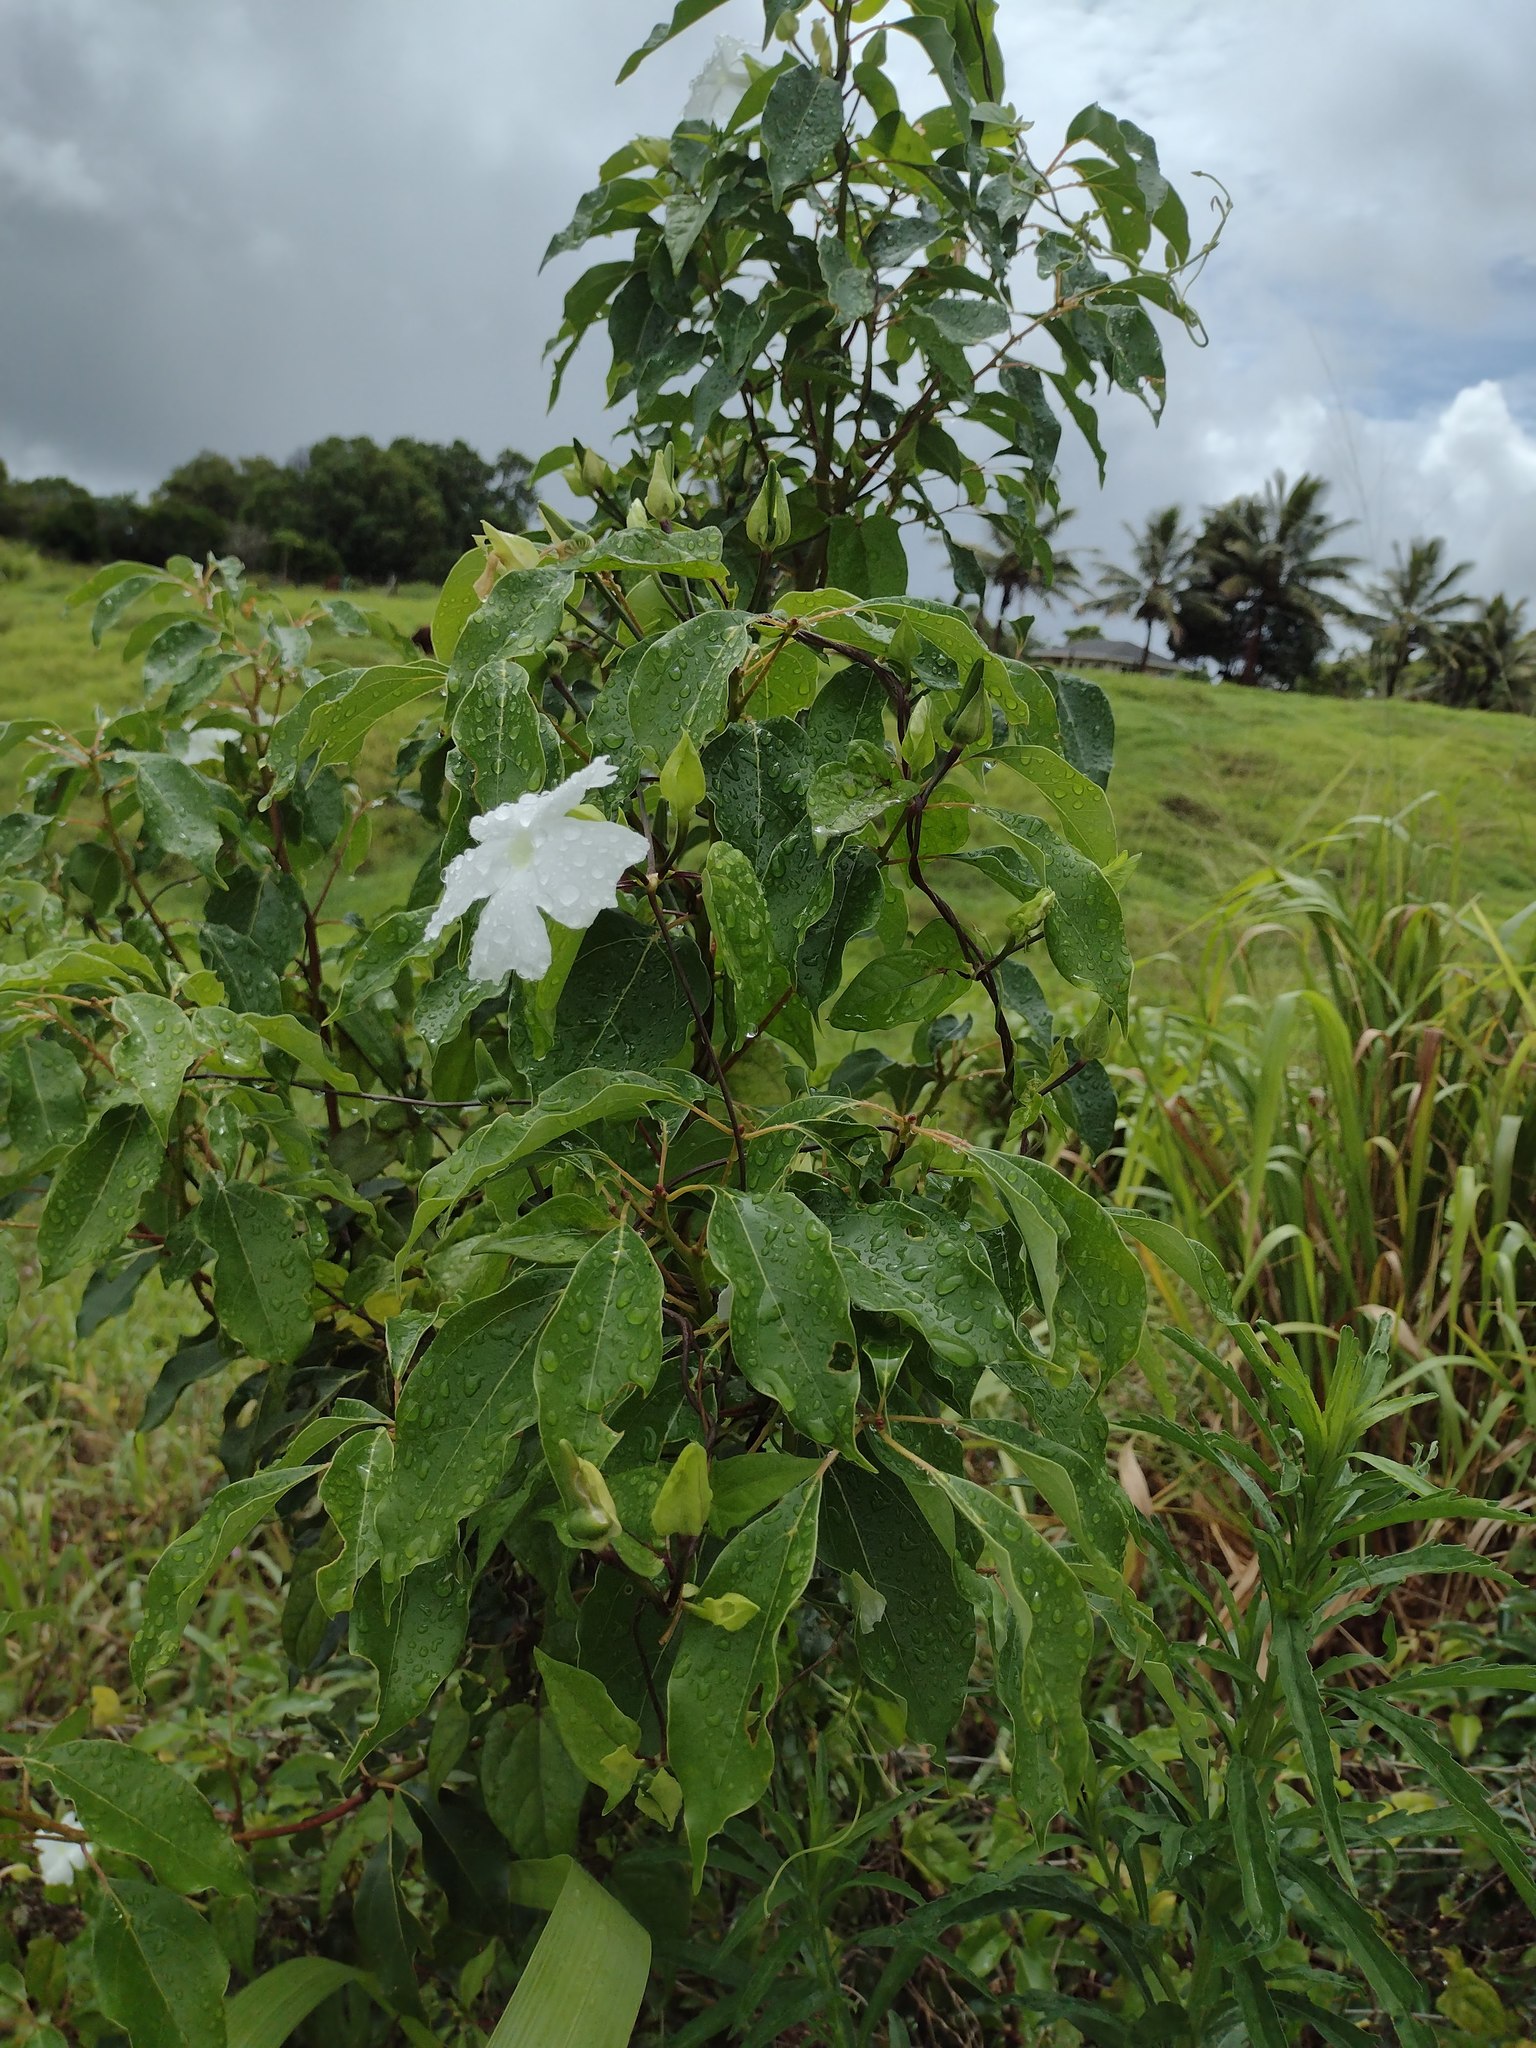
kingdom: Plantae
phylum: Tracheophyta
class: Magnoliopsida
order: Lamiales
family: Acanthaceae
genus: Thunbergia
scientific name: Thunbergia fragrans
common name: Whitelady
